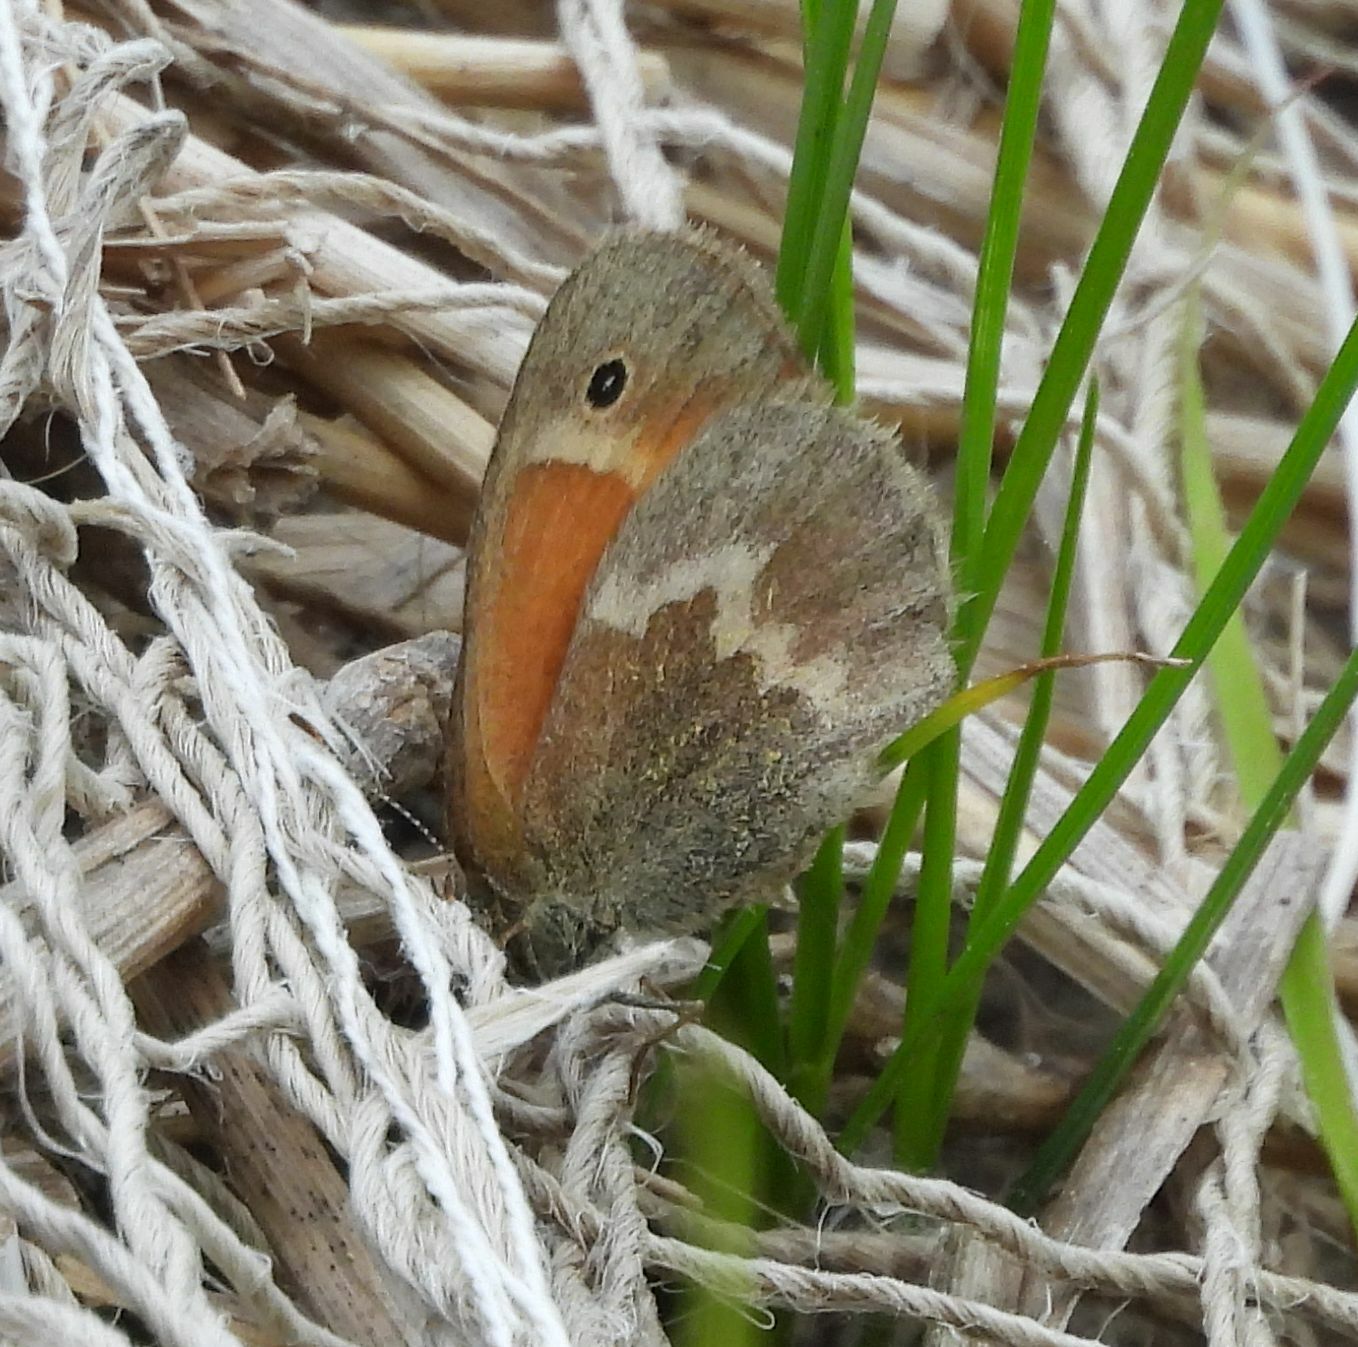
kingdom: Animalia
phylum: Arthropoda
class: Insecta
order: Lepidoptera
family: Nymphalidae
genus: Coenonympha
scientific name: Coenonympha california
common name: Common ringlet
